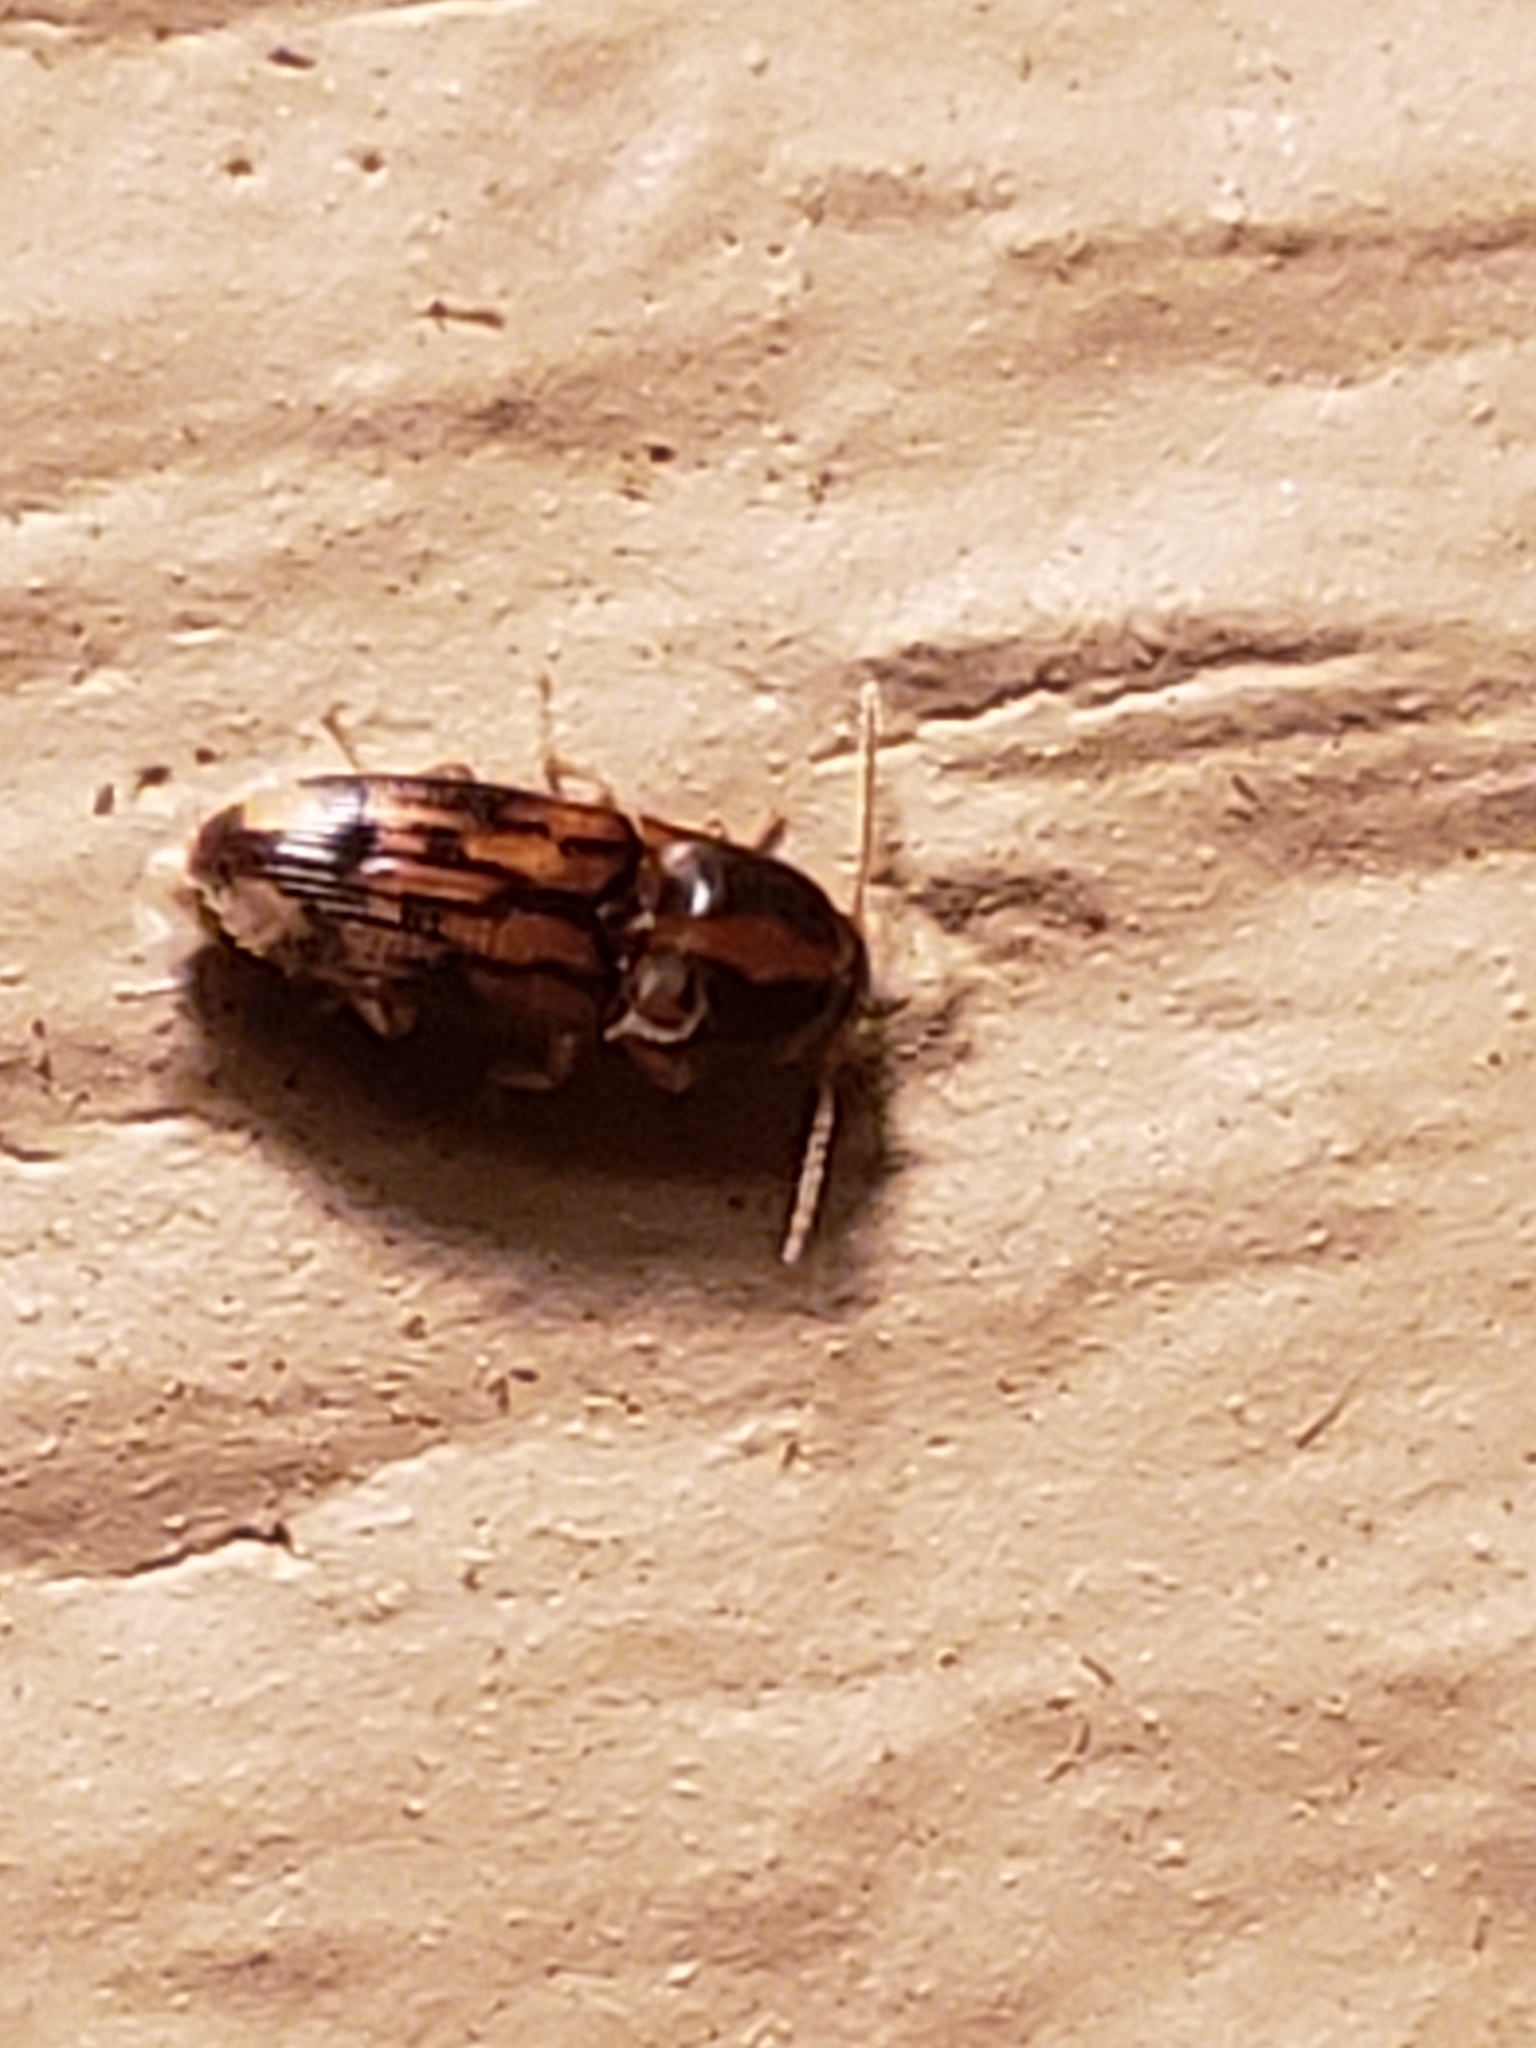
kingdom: Animalia
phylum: Arthropoda
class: Insecta
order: Coleoptera
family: Elateridae
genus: Monocrepidius
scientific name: Monocrepidius bellus
